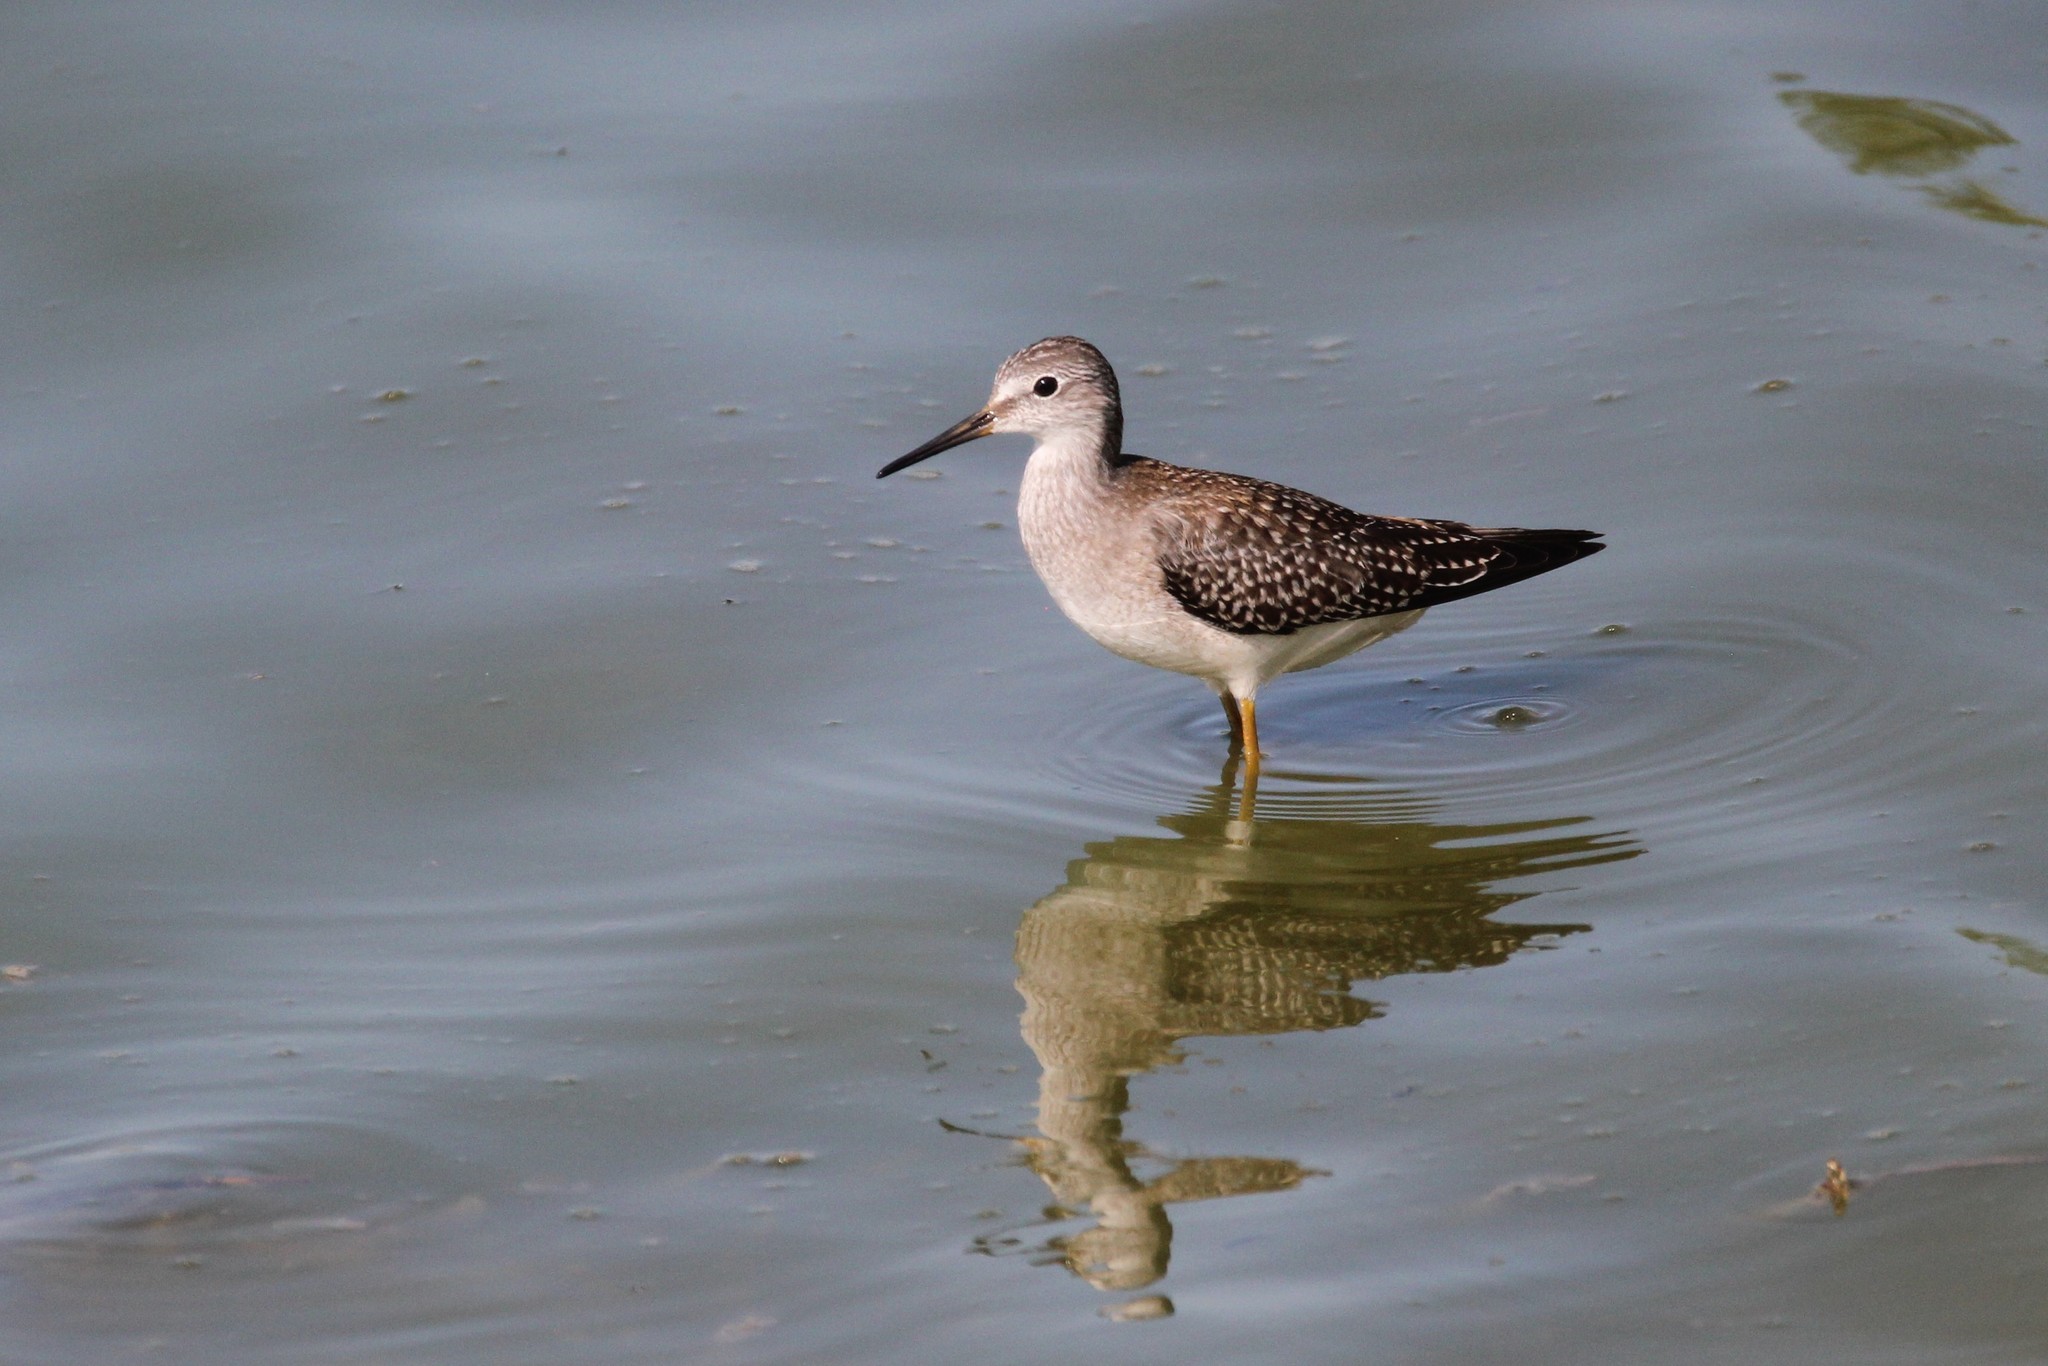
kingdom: Animalia
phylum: Chordata
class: Aves
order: Charadriiformes
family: Scolopacidae
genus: Tringa
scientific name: Tringa flavipes
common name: Lesser yellowlegs
